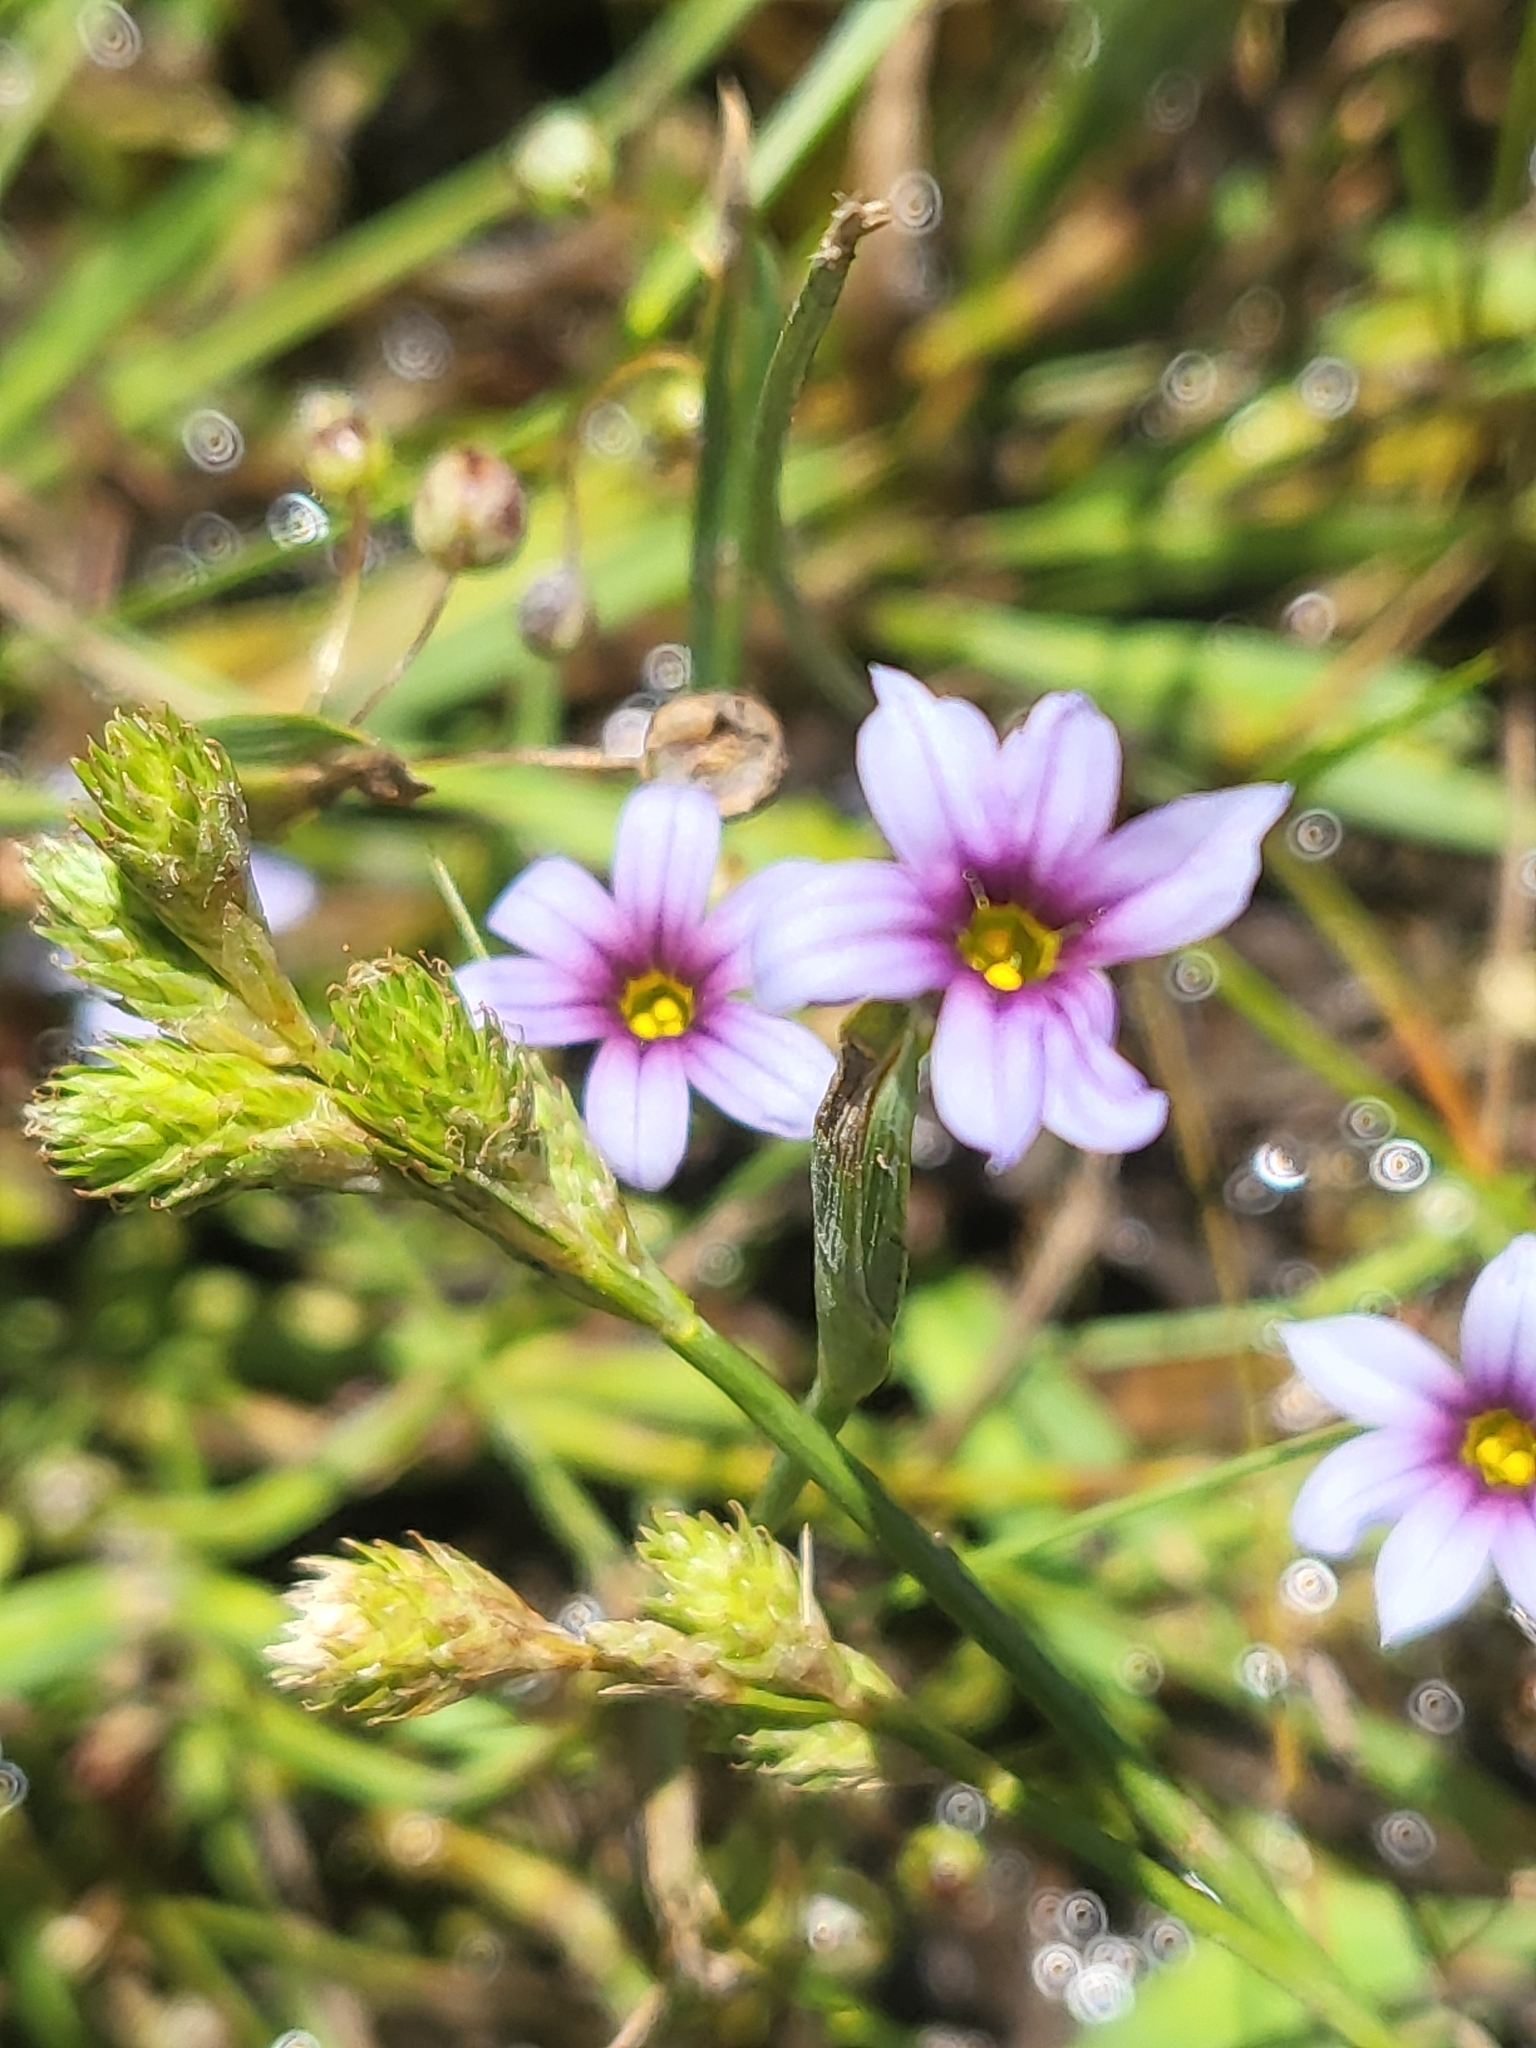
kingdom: Plantae
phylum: Tracheophyta
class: Liliopsida
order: Asparagales
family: Iridaceae
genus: Sisyrinchium
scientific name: Sisyrinchium micranthum
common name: Bermuda pigroot
